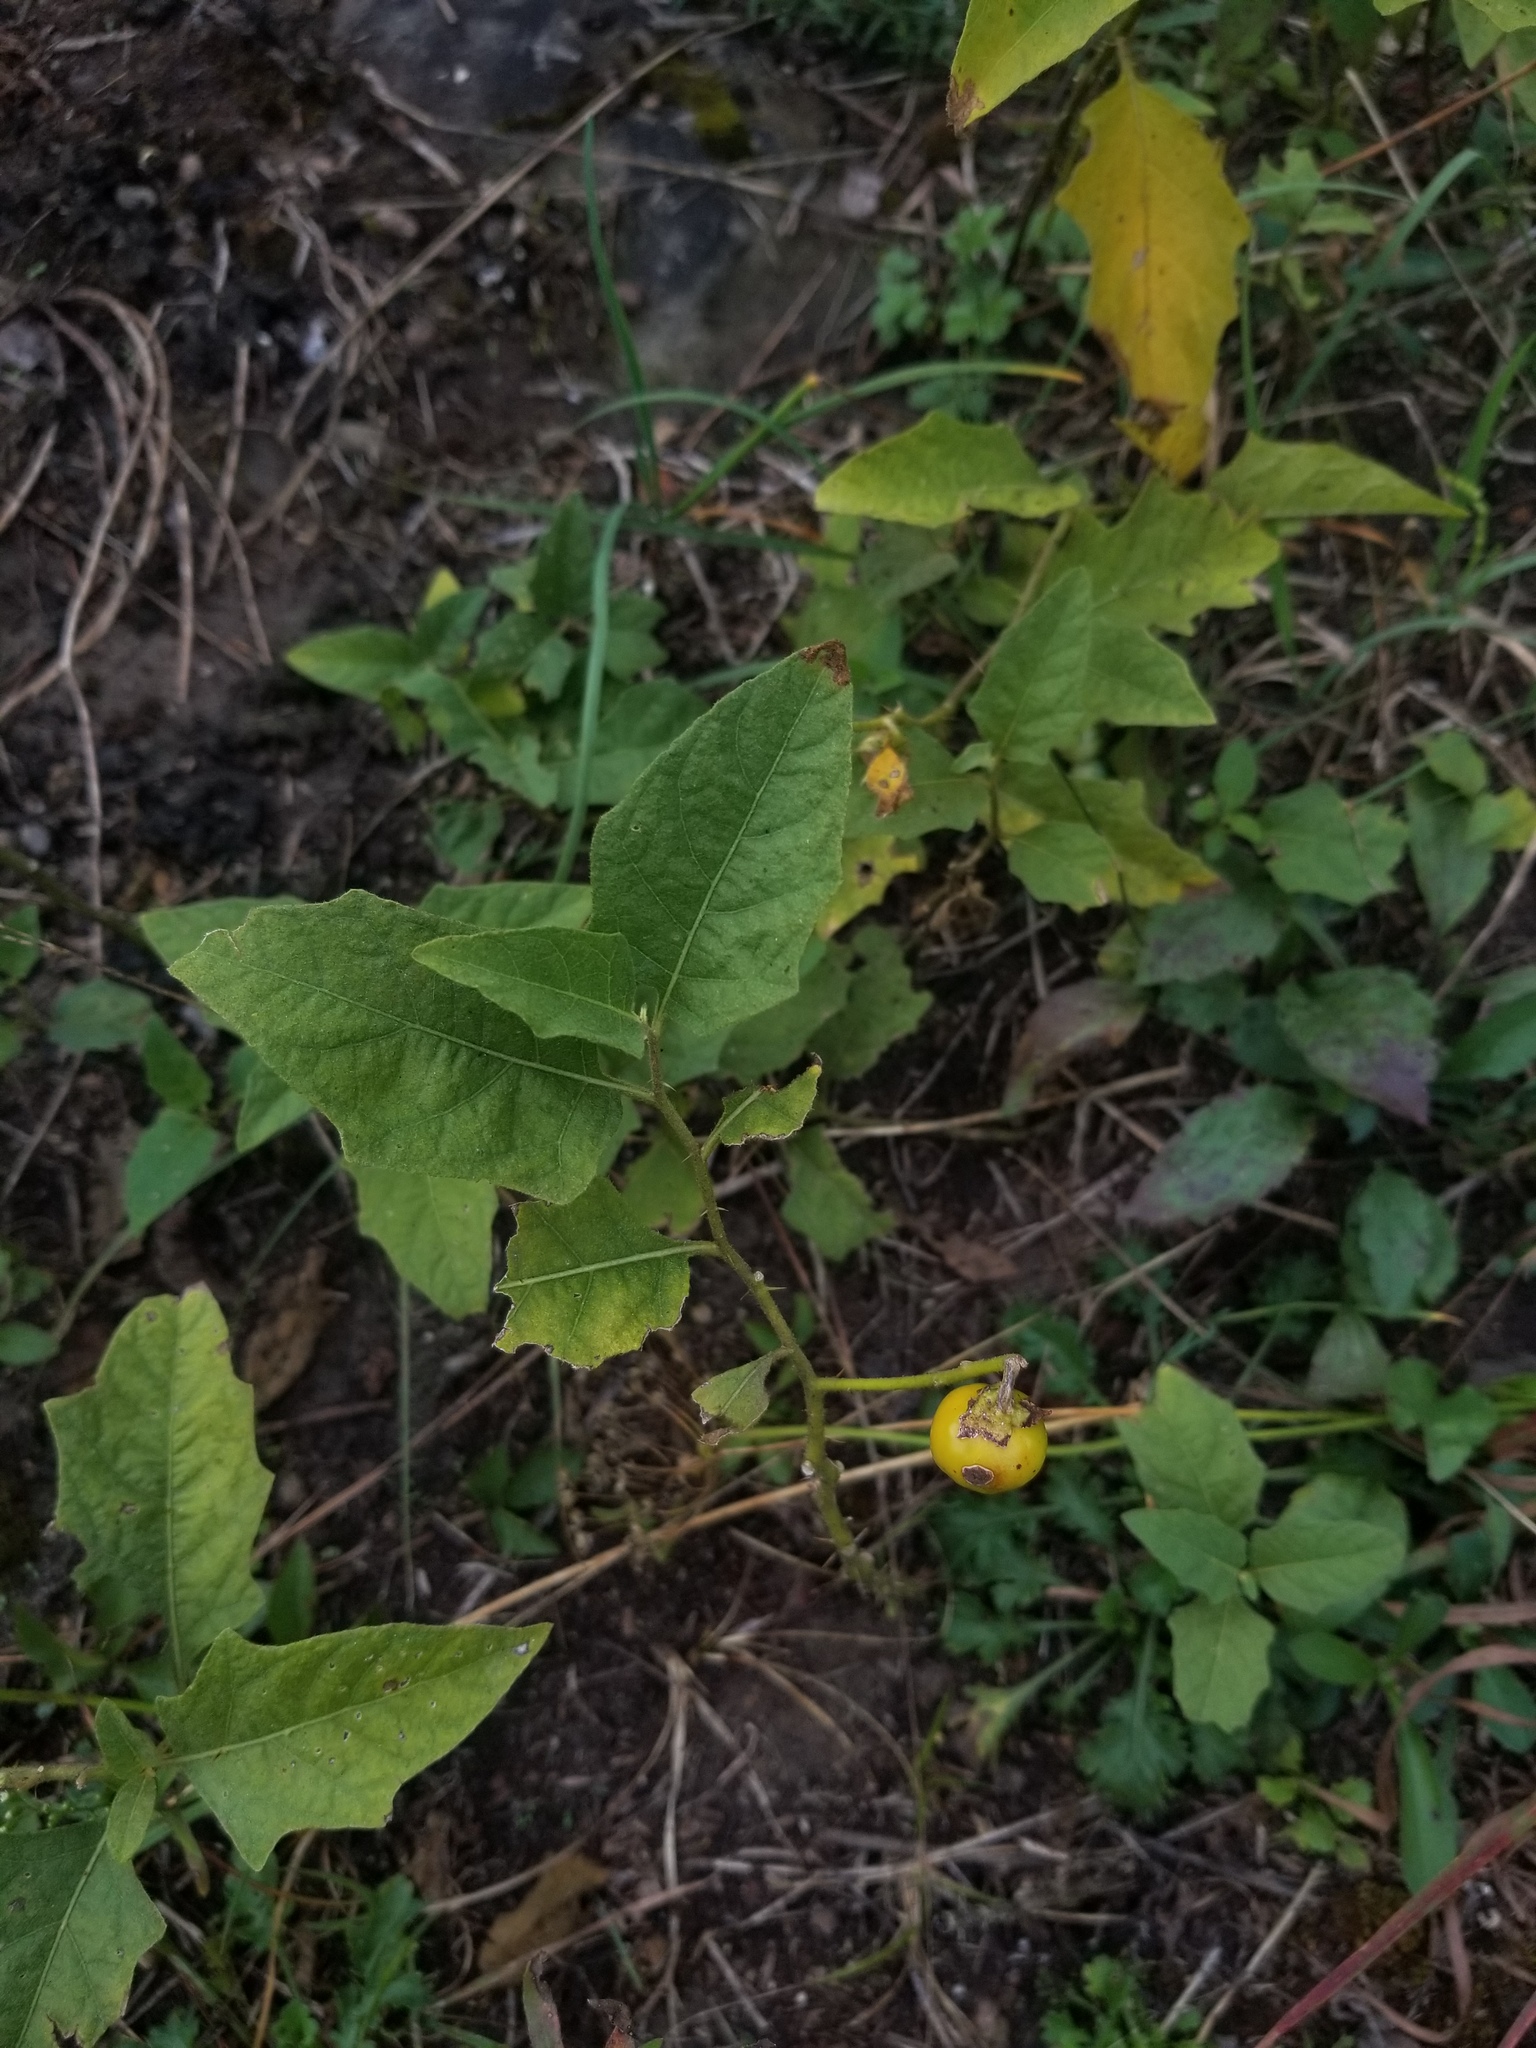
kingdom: Plantae
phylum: Tracheophyta
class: Magnoliopsida
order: Solanales
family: Solanaceae
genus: Solanum
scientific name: Solanum carolinense
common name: Horse-nettle
